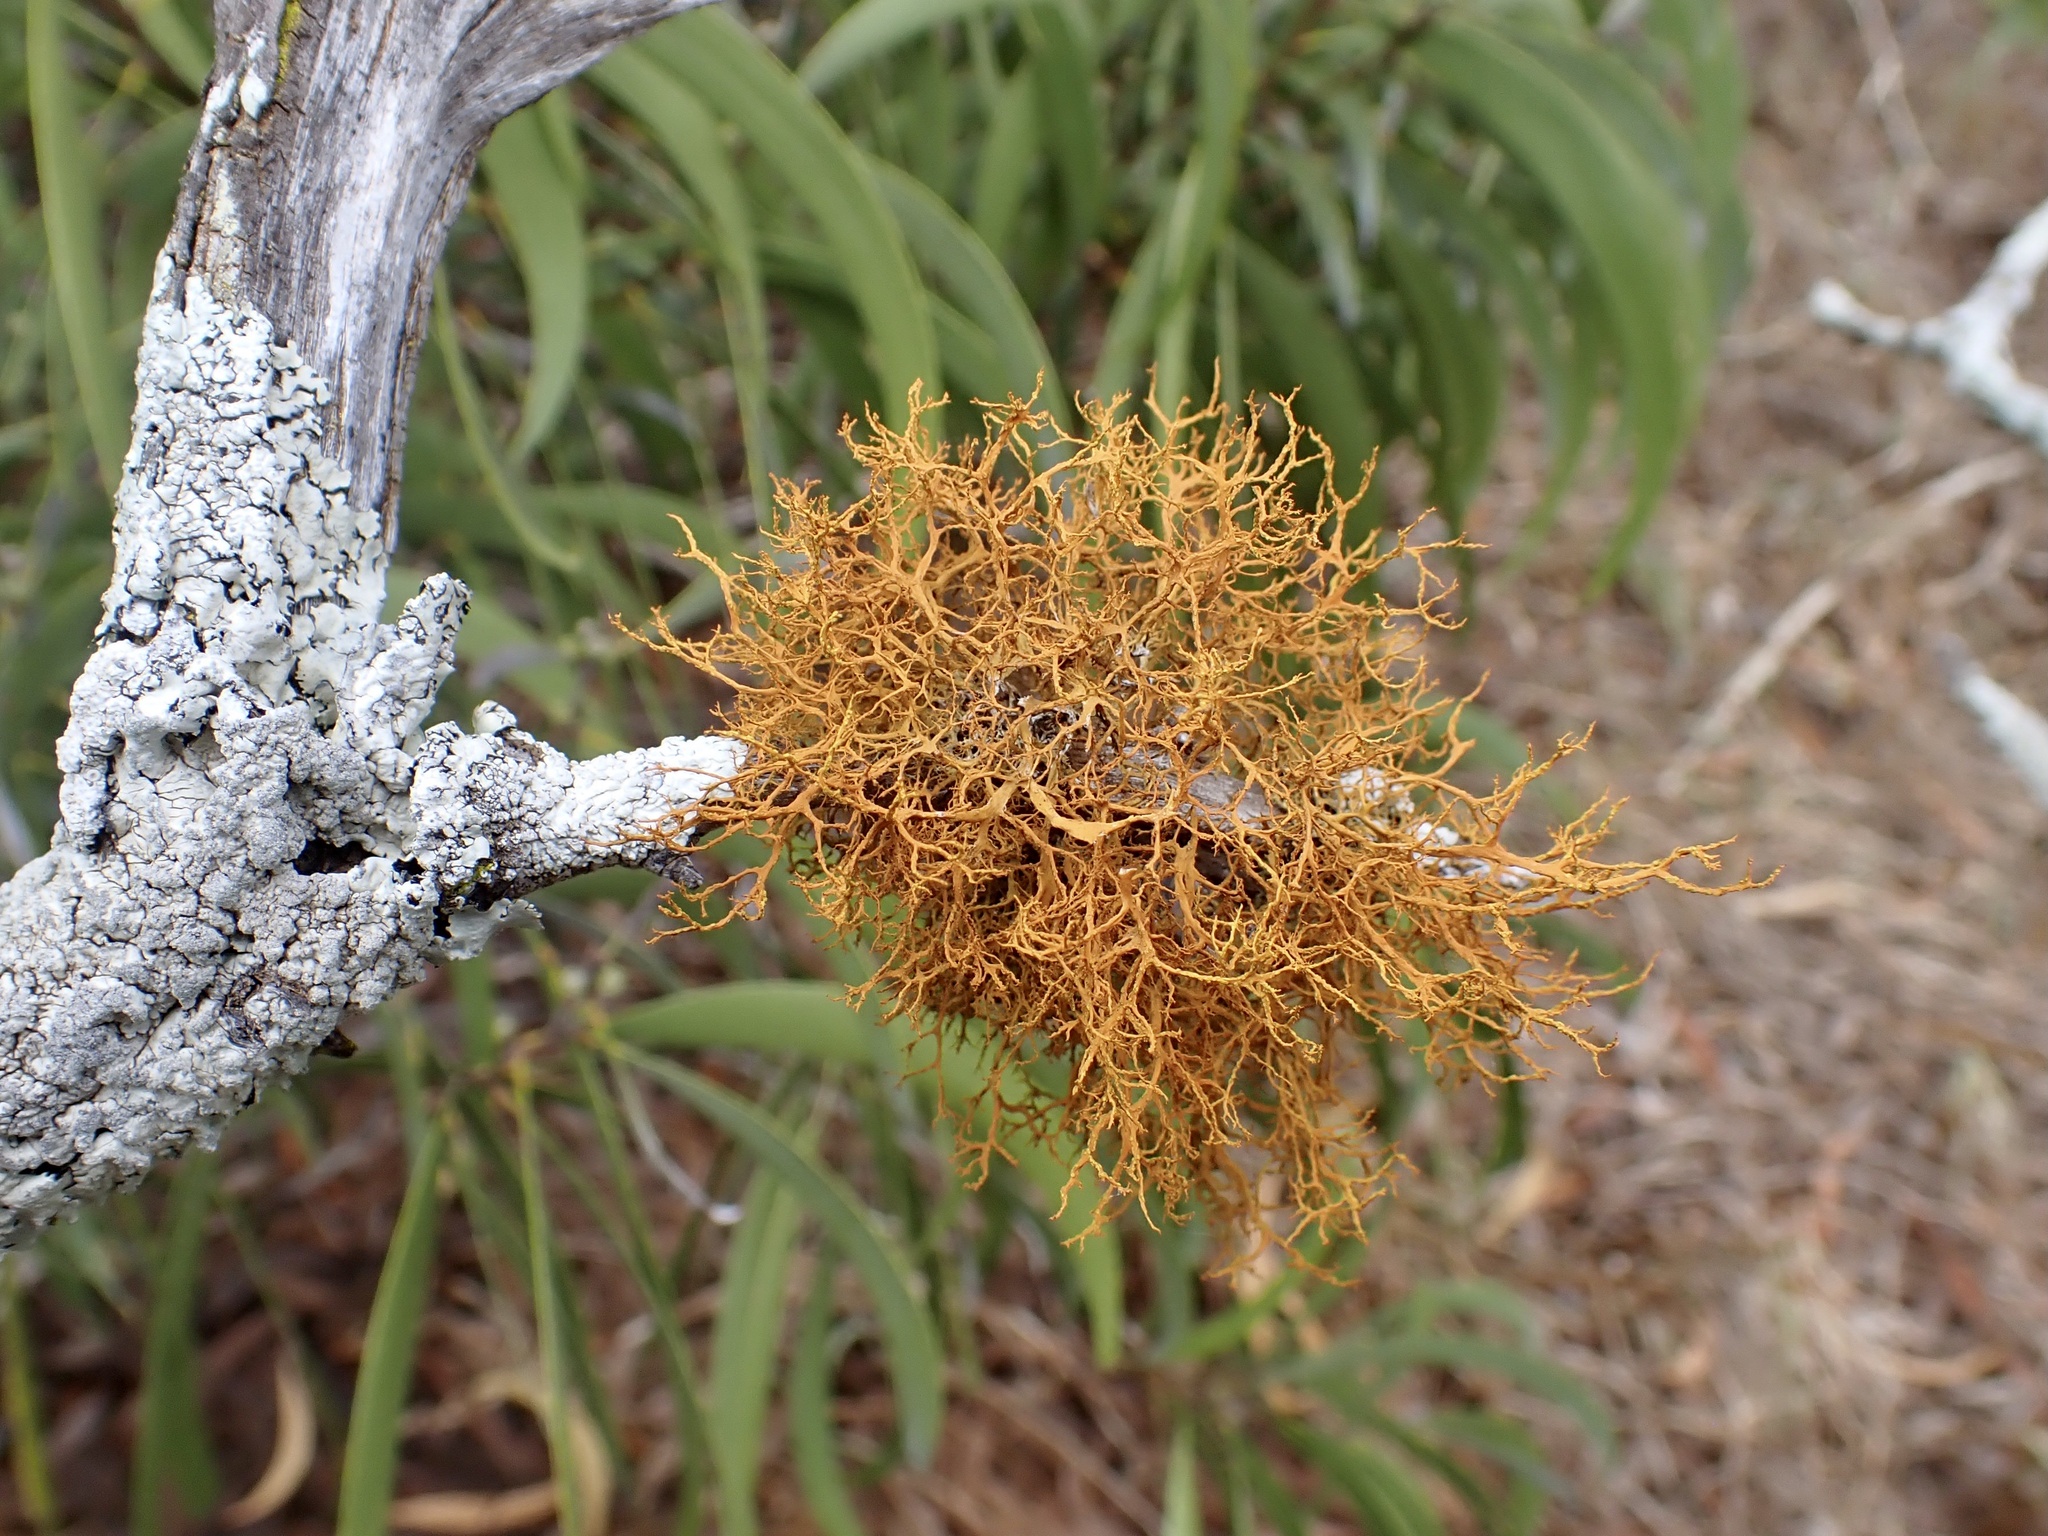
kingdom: Fungi
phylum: Ascomycota
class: Lecanoromycetes
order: Teloschistales
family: Teloschistaceae
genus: Teloschistes
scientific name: Teloschistes flavicans
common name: Golden hair-lichen
